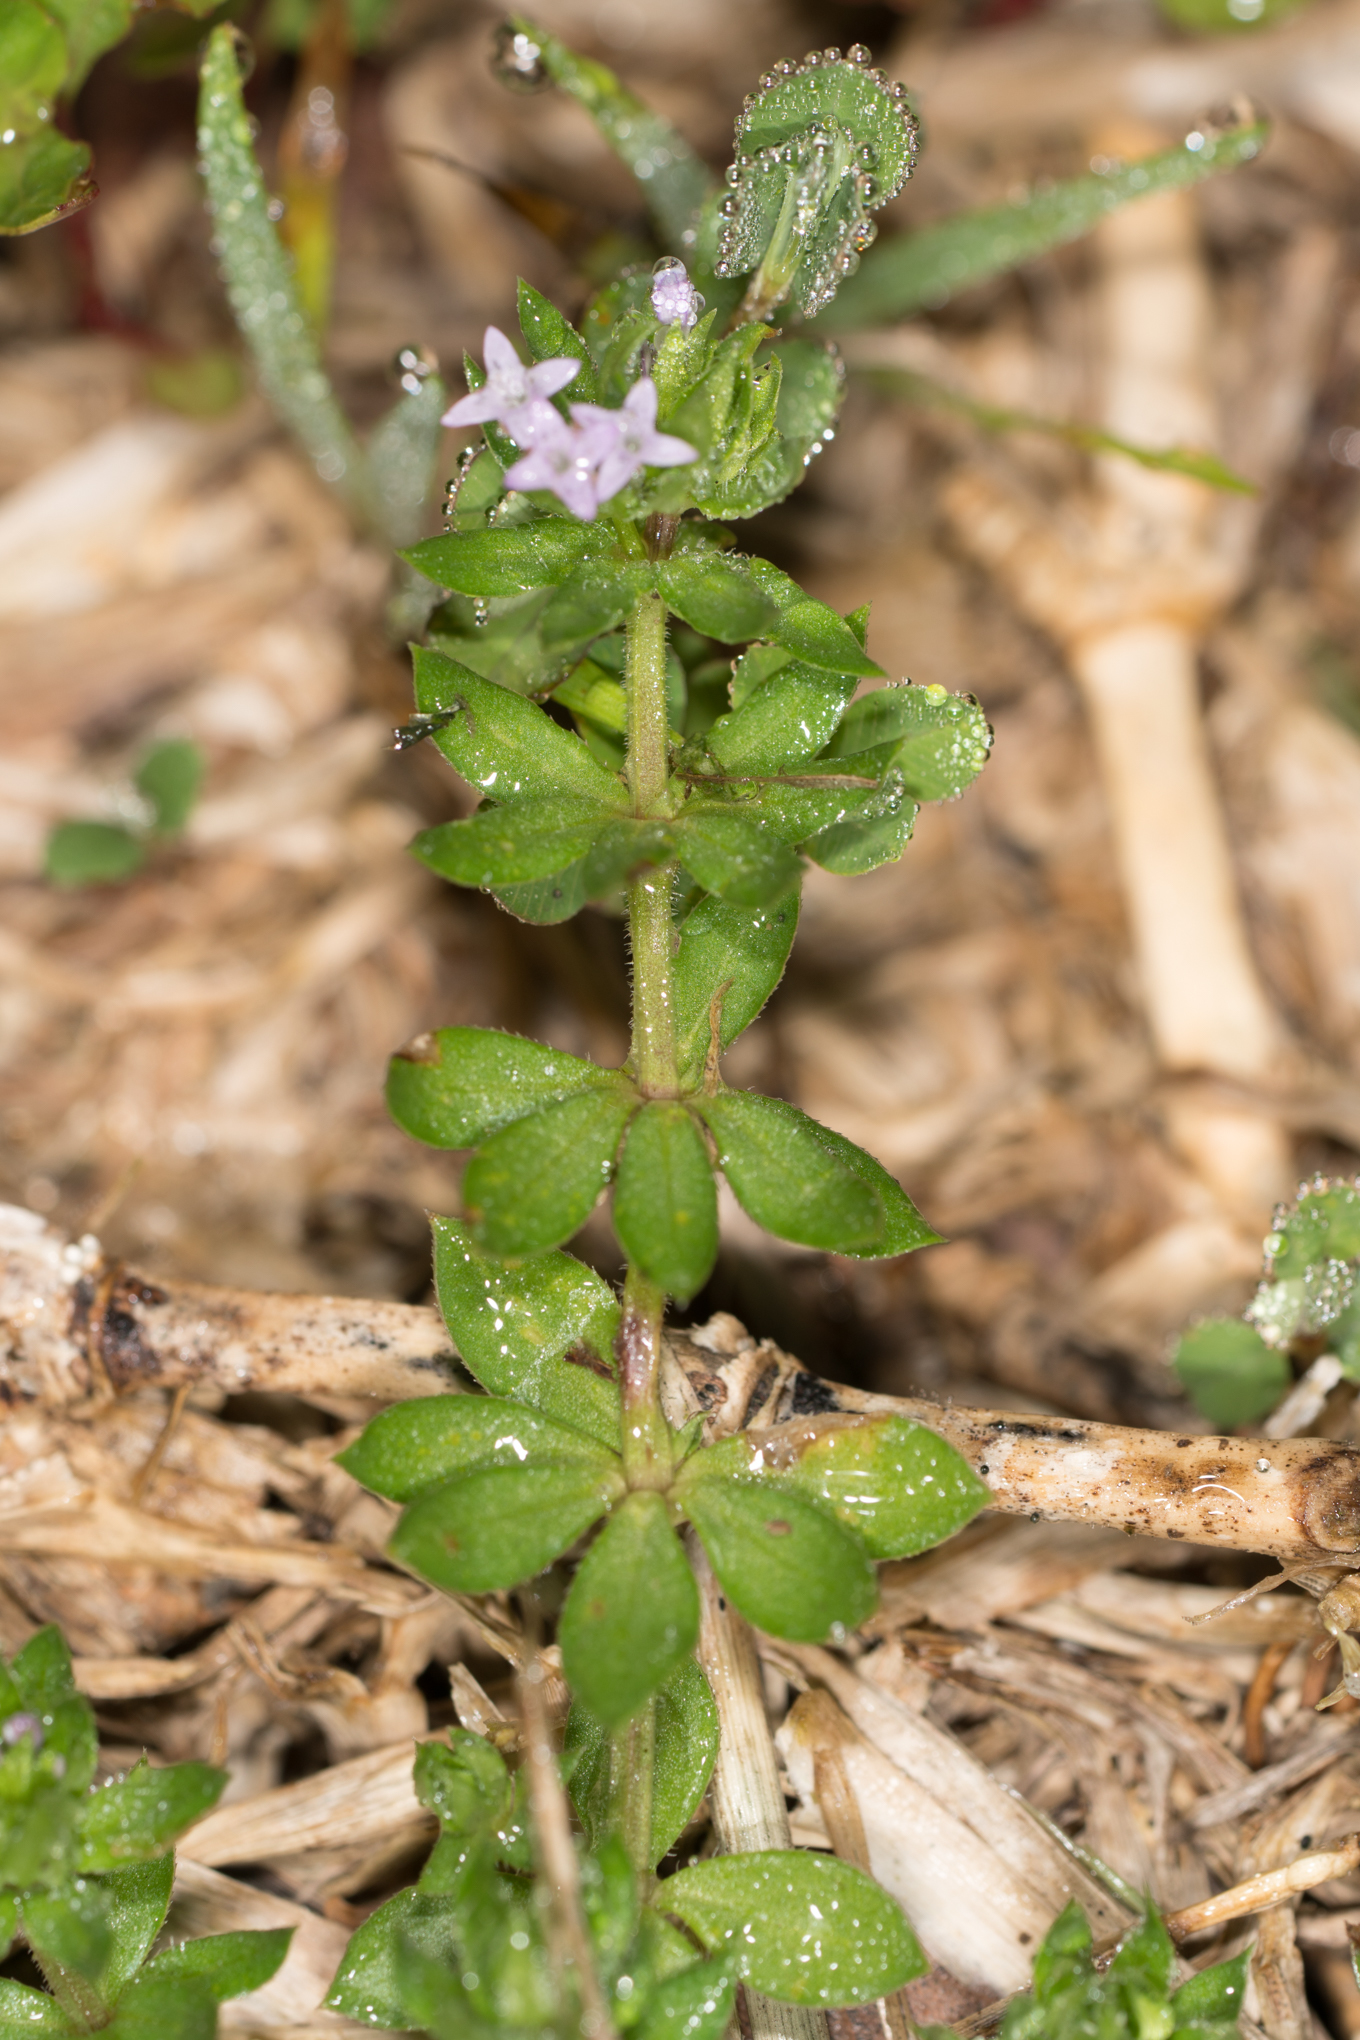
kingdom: Plantae
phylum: Tracheophyta
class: Magnoliopsida
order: Gentianales
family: Rubiaceae
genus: Sherardia
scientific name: Sherardia arvensis
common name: Field madder
